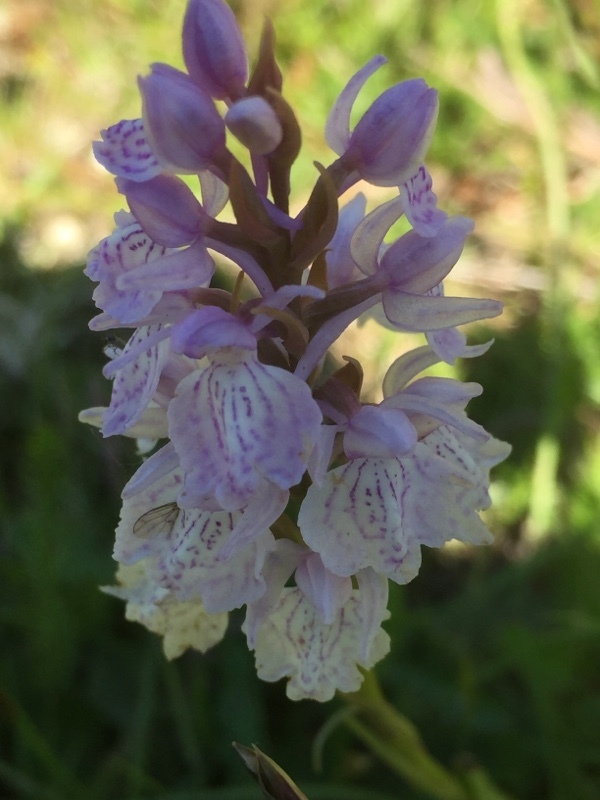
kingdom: Plantae
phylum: Tracheophyta
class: Liliopsida
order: Asparagales
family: Orchidaceae
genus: Dactylorhiza
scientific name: Dactylorhiza maculata
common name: Heath spotted-orchid
